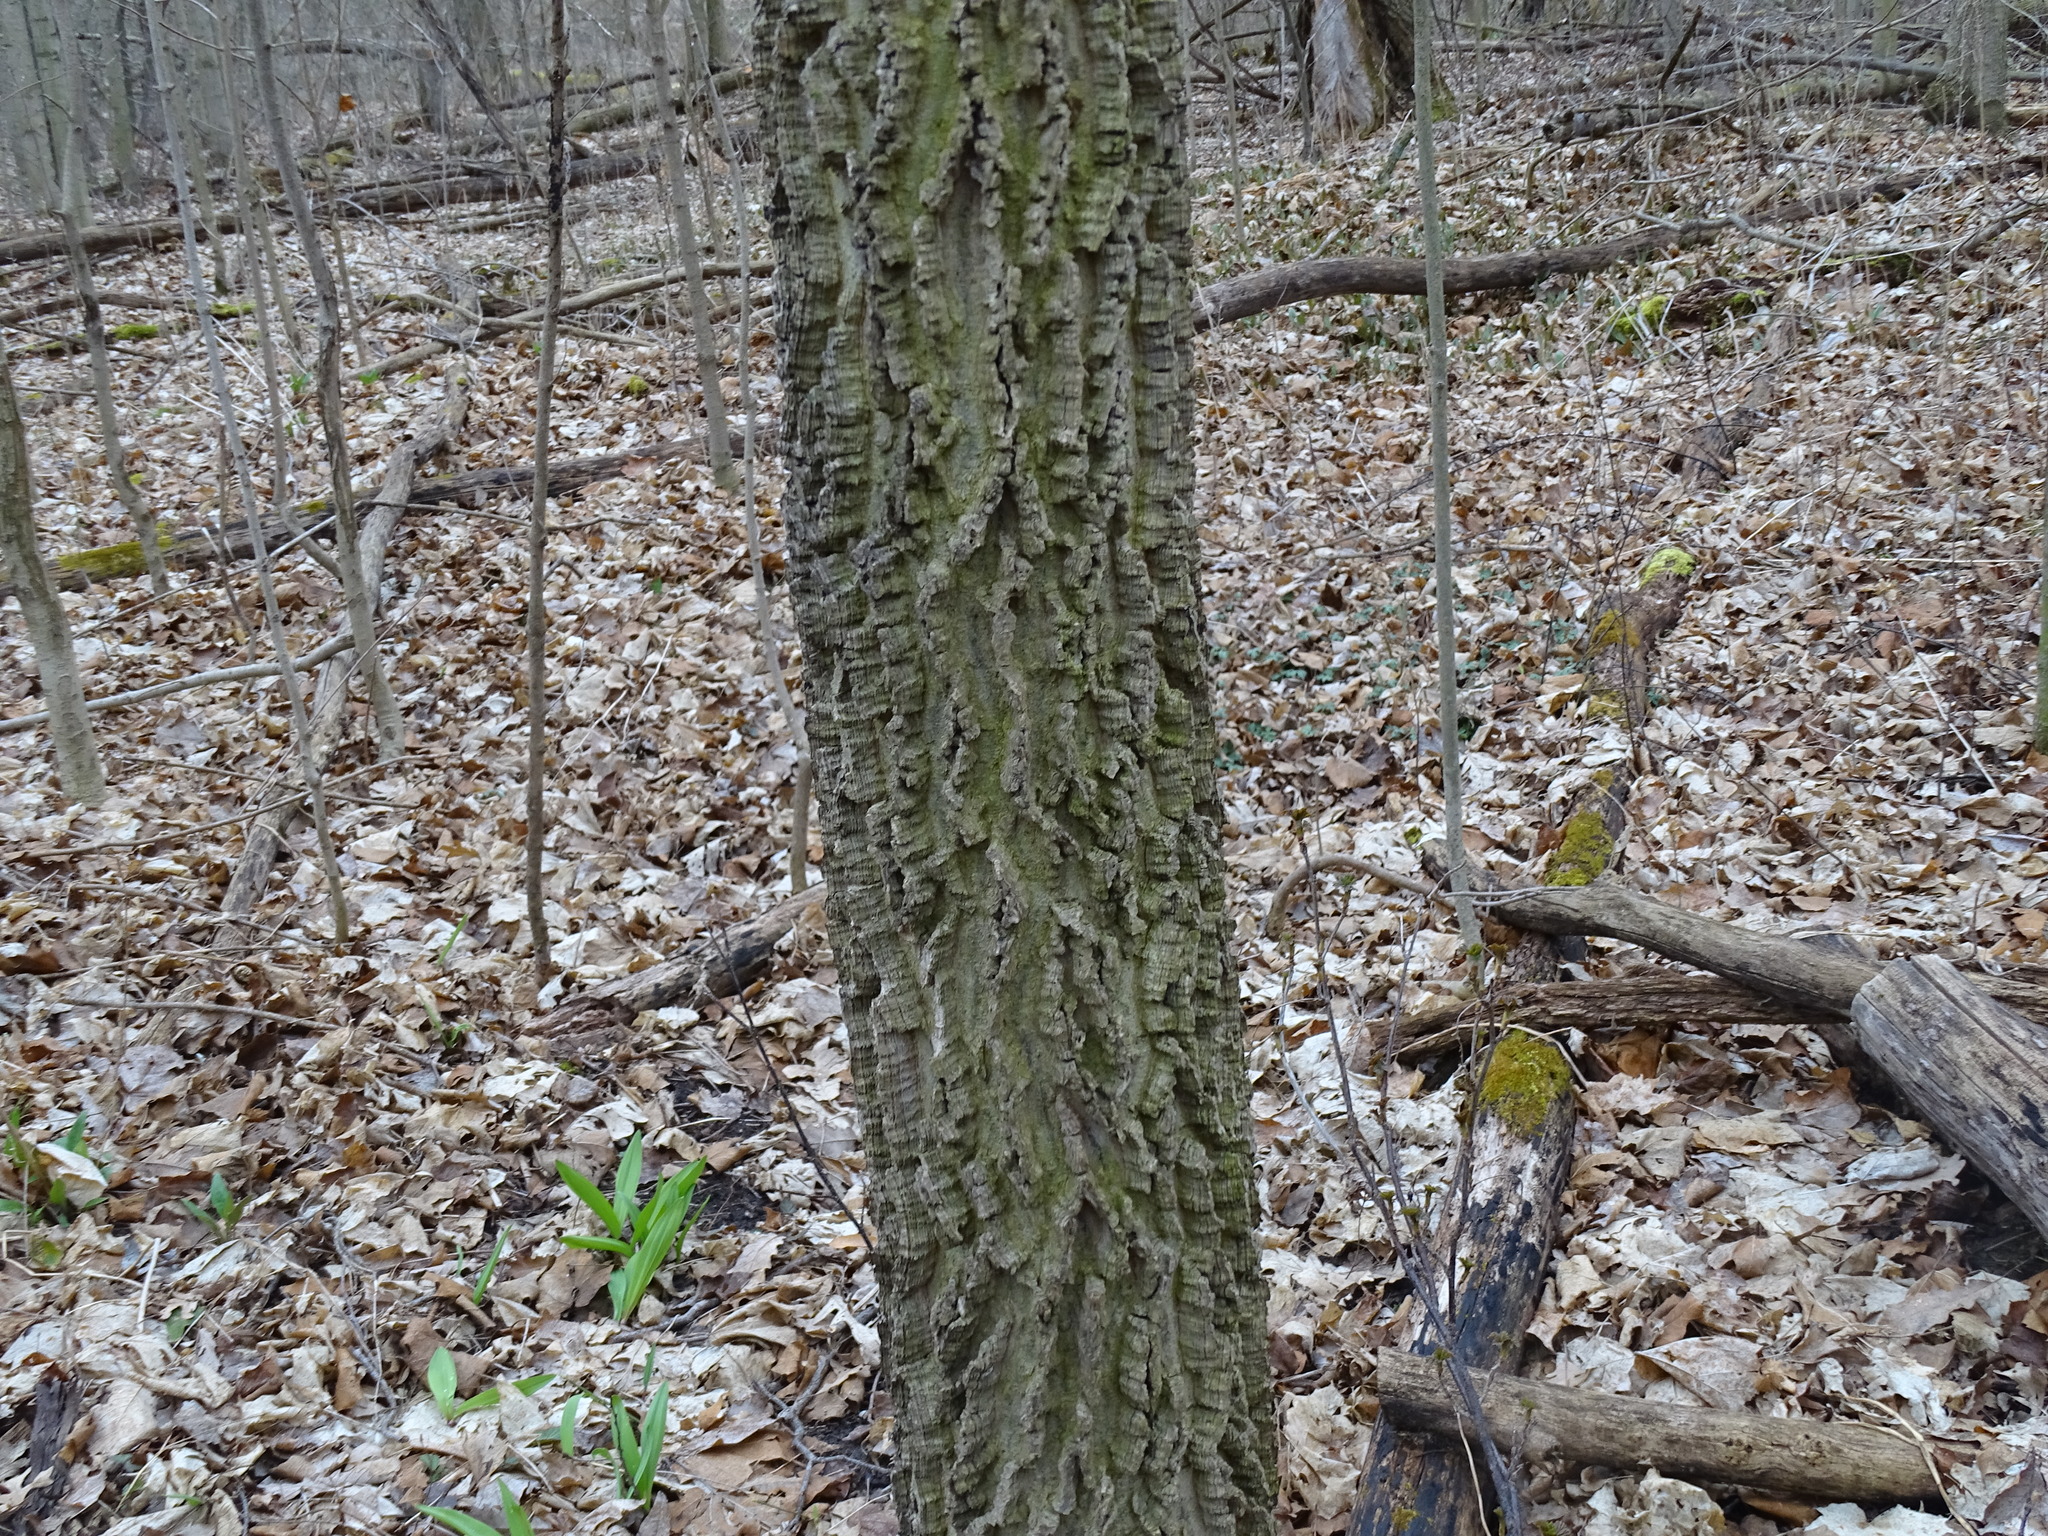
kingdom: Plantae
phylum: Tracheophyta
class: Magnoliopsida
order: Rosales
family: Cannabaceae
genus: Celtis
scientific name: Celtis occidentalis
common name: Common hackberry
